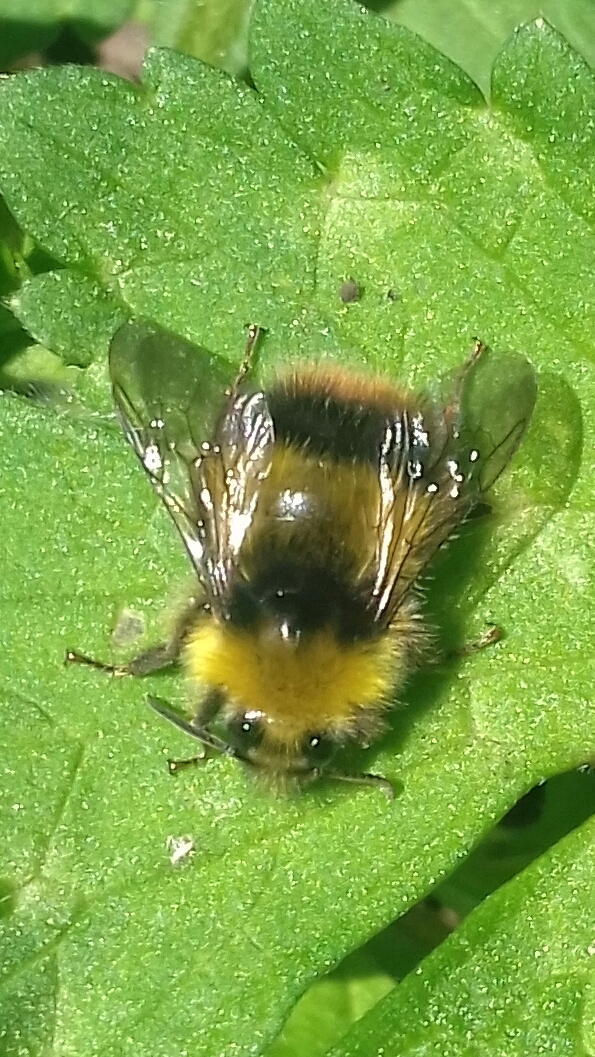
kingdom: Animalia
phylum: Arthropoda
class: Insecta
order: Hymenoptera
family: Apidae
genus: Bombus
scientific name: Bombus pratorum
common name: Early humble-bee
